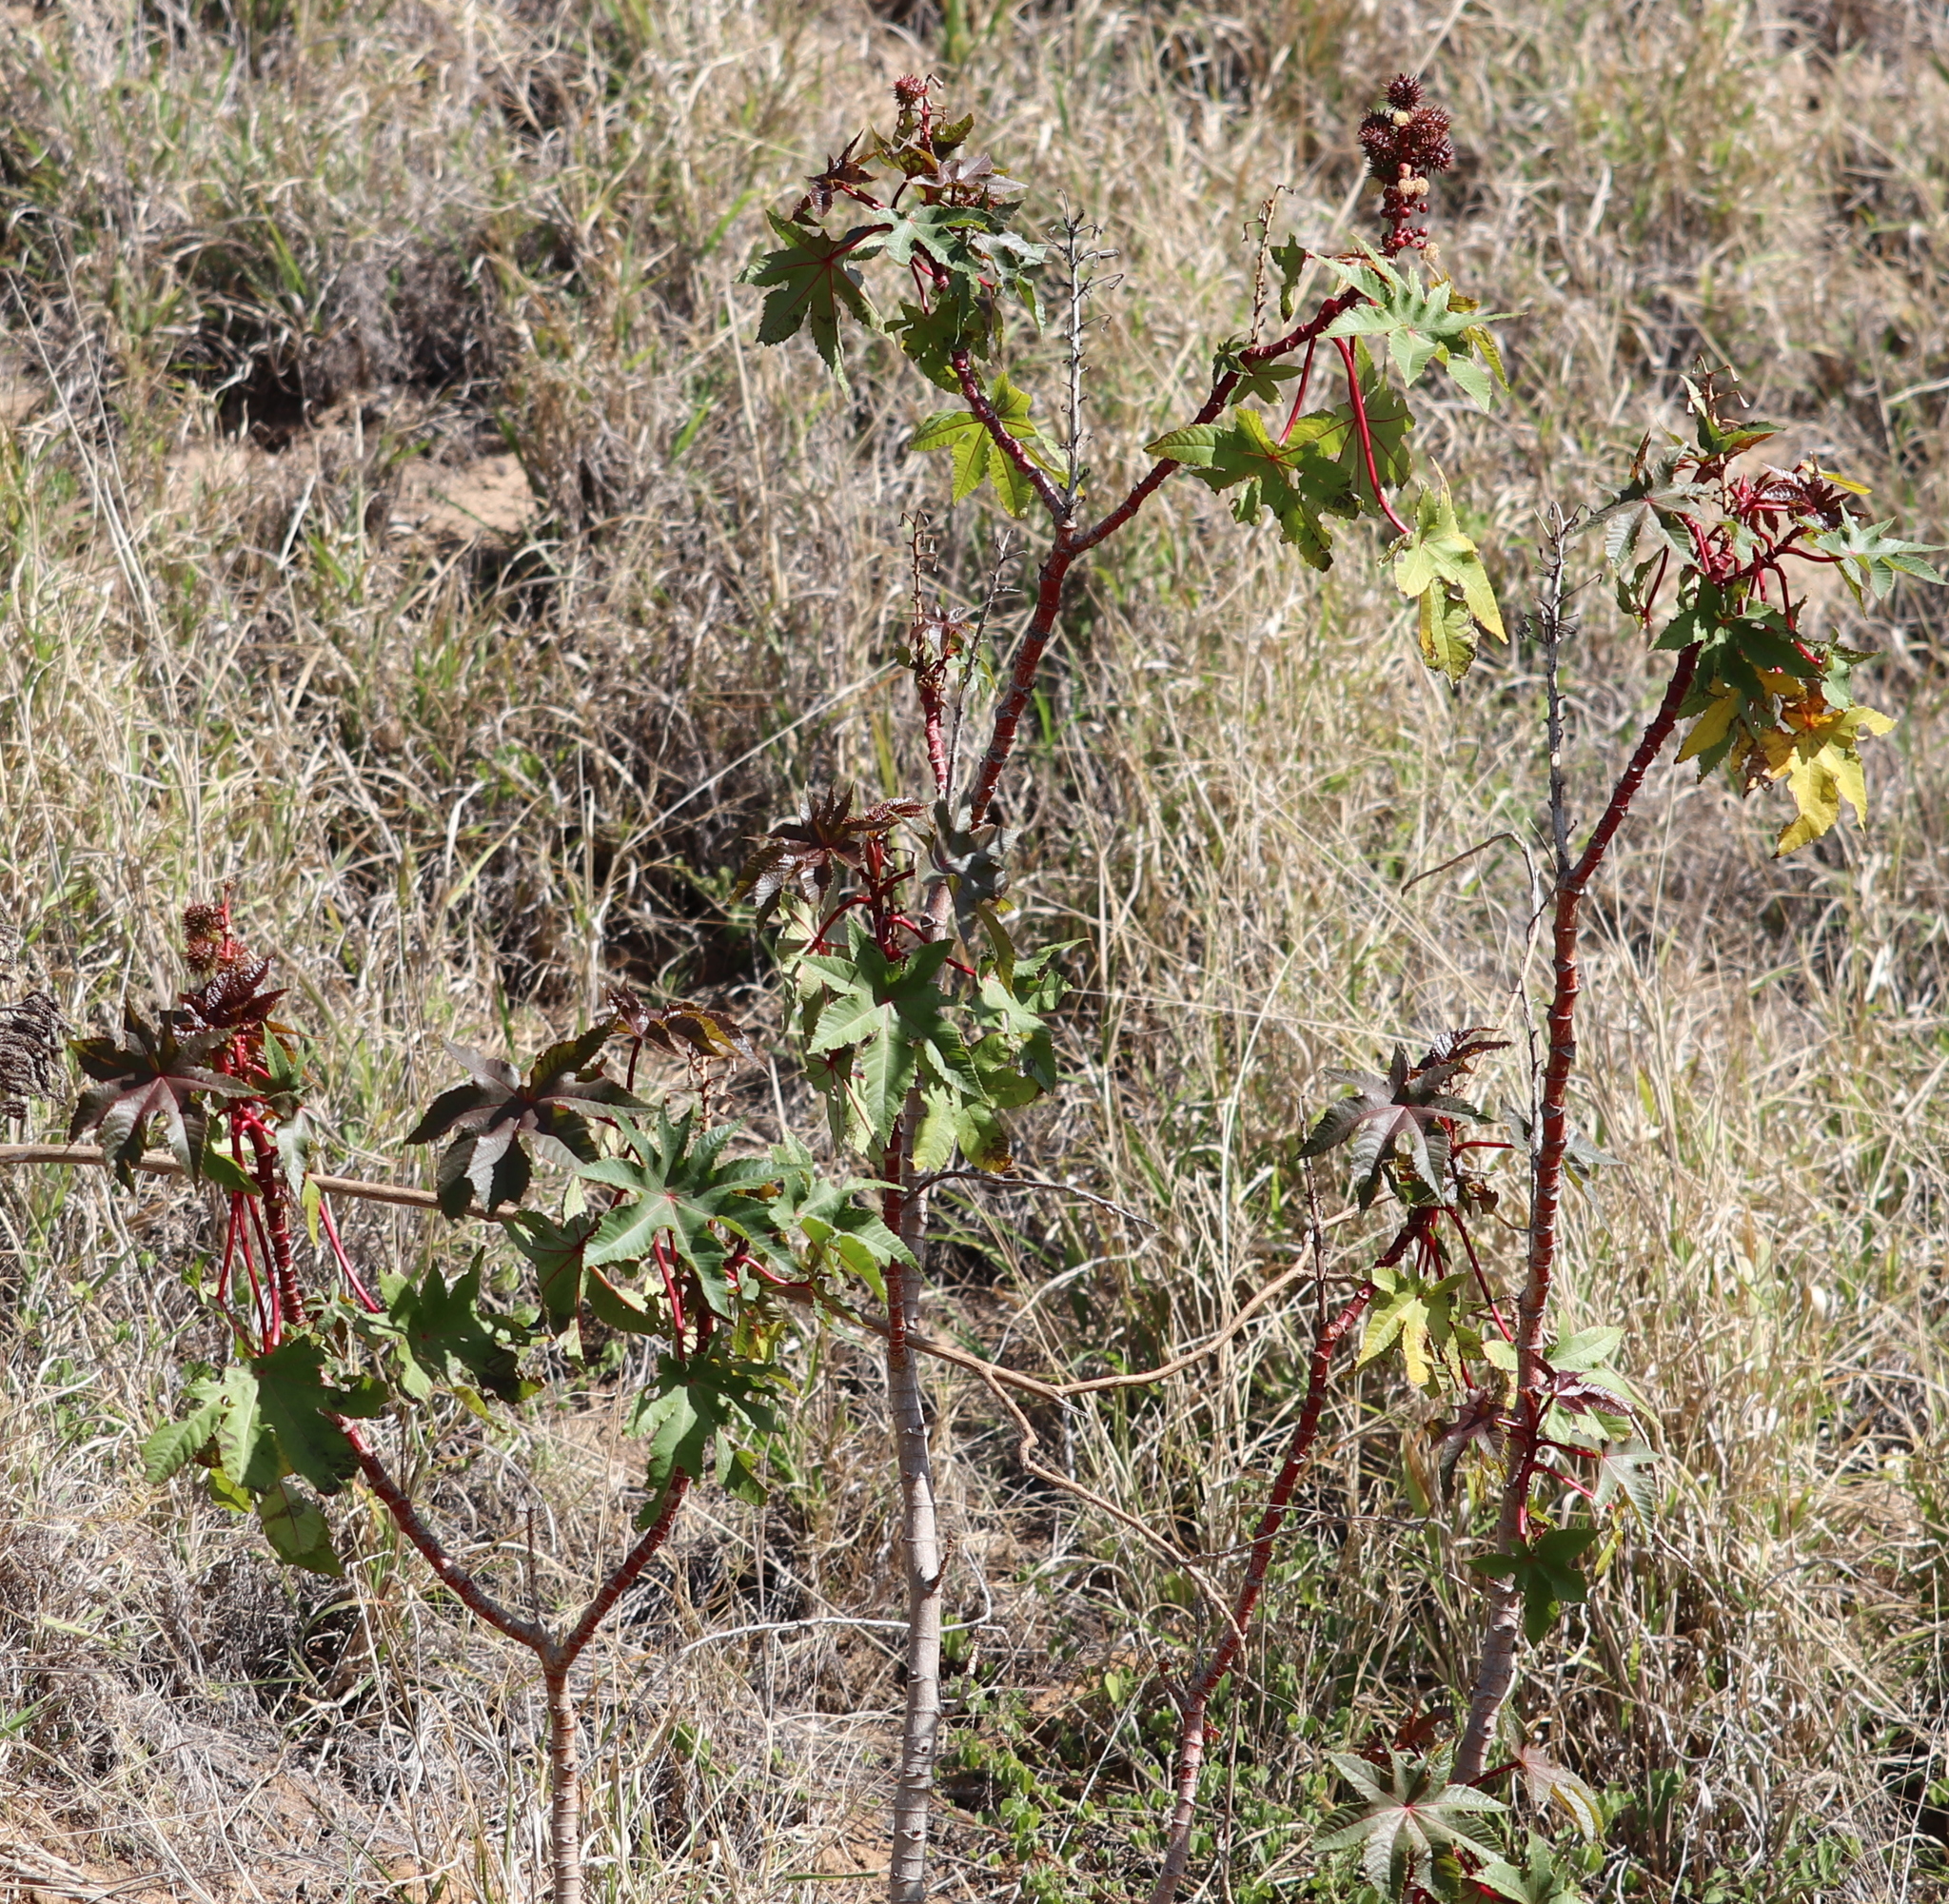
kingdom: Plantae
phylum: Tracheophyta
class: Magnoliopsida
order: Malpighiales
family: Euphorbiaceae
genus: Ricinus
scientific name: Ricinus communis
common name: Castor-oil-plant
